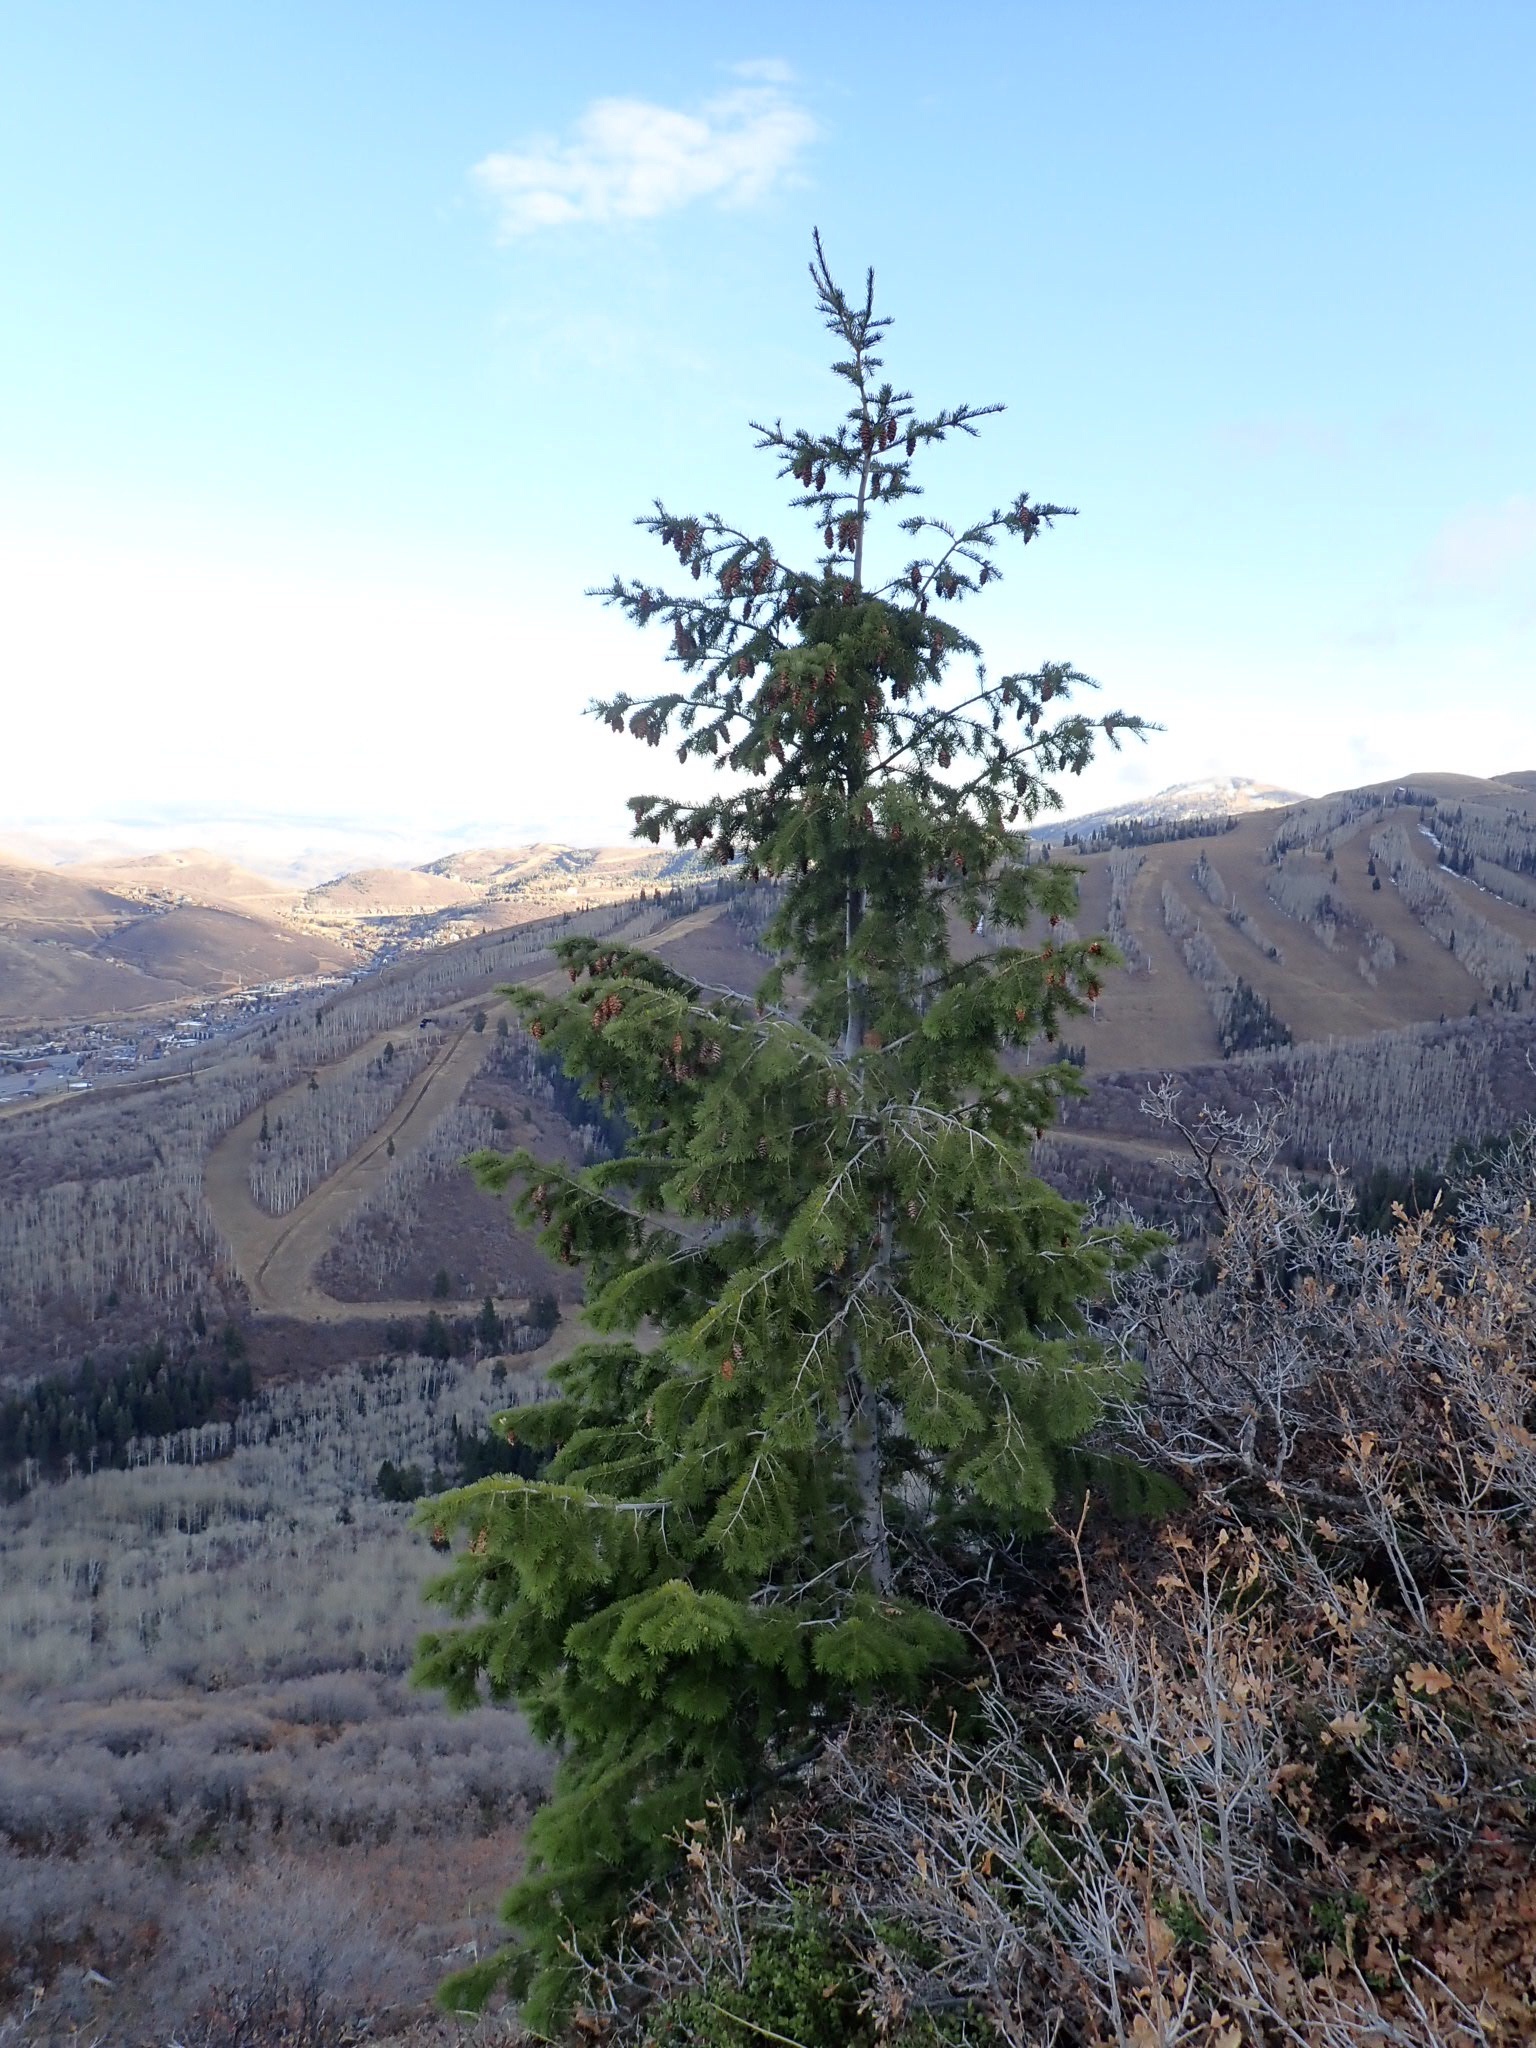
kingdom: Plantae
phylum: Tracheophyta
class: Pinopsida
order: Pinales
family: Pinaceae
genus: Picea
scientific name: Picea engelmannii
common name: Engelmann spruce
